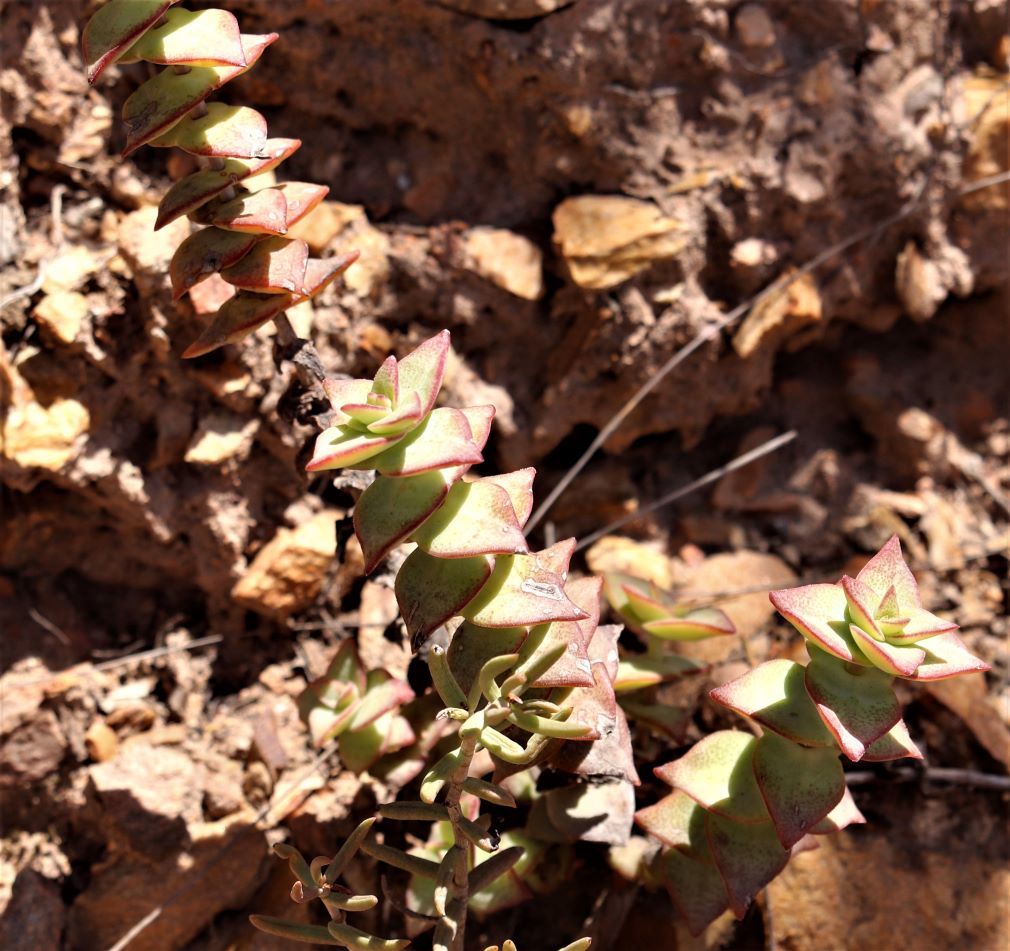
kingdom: Plantae
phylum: Tracheophyta
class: Magnoliopsida
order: Saxifragales
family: Crassulaceae
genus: Crassula
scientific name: Crassula perforata
